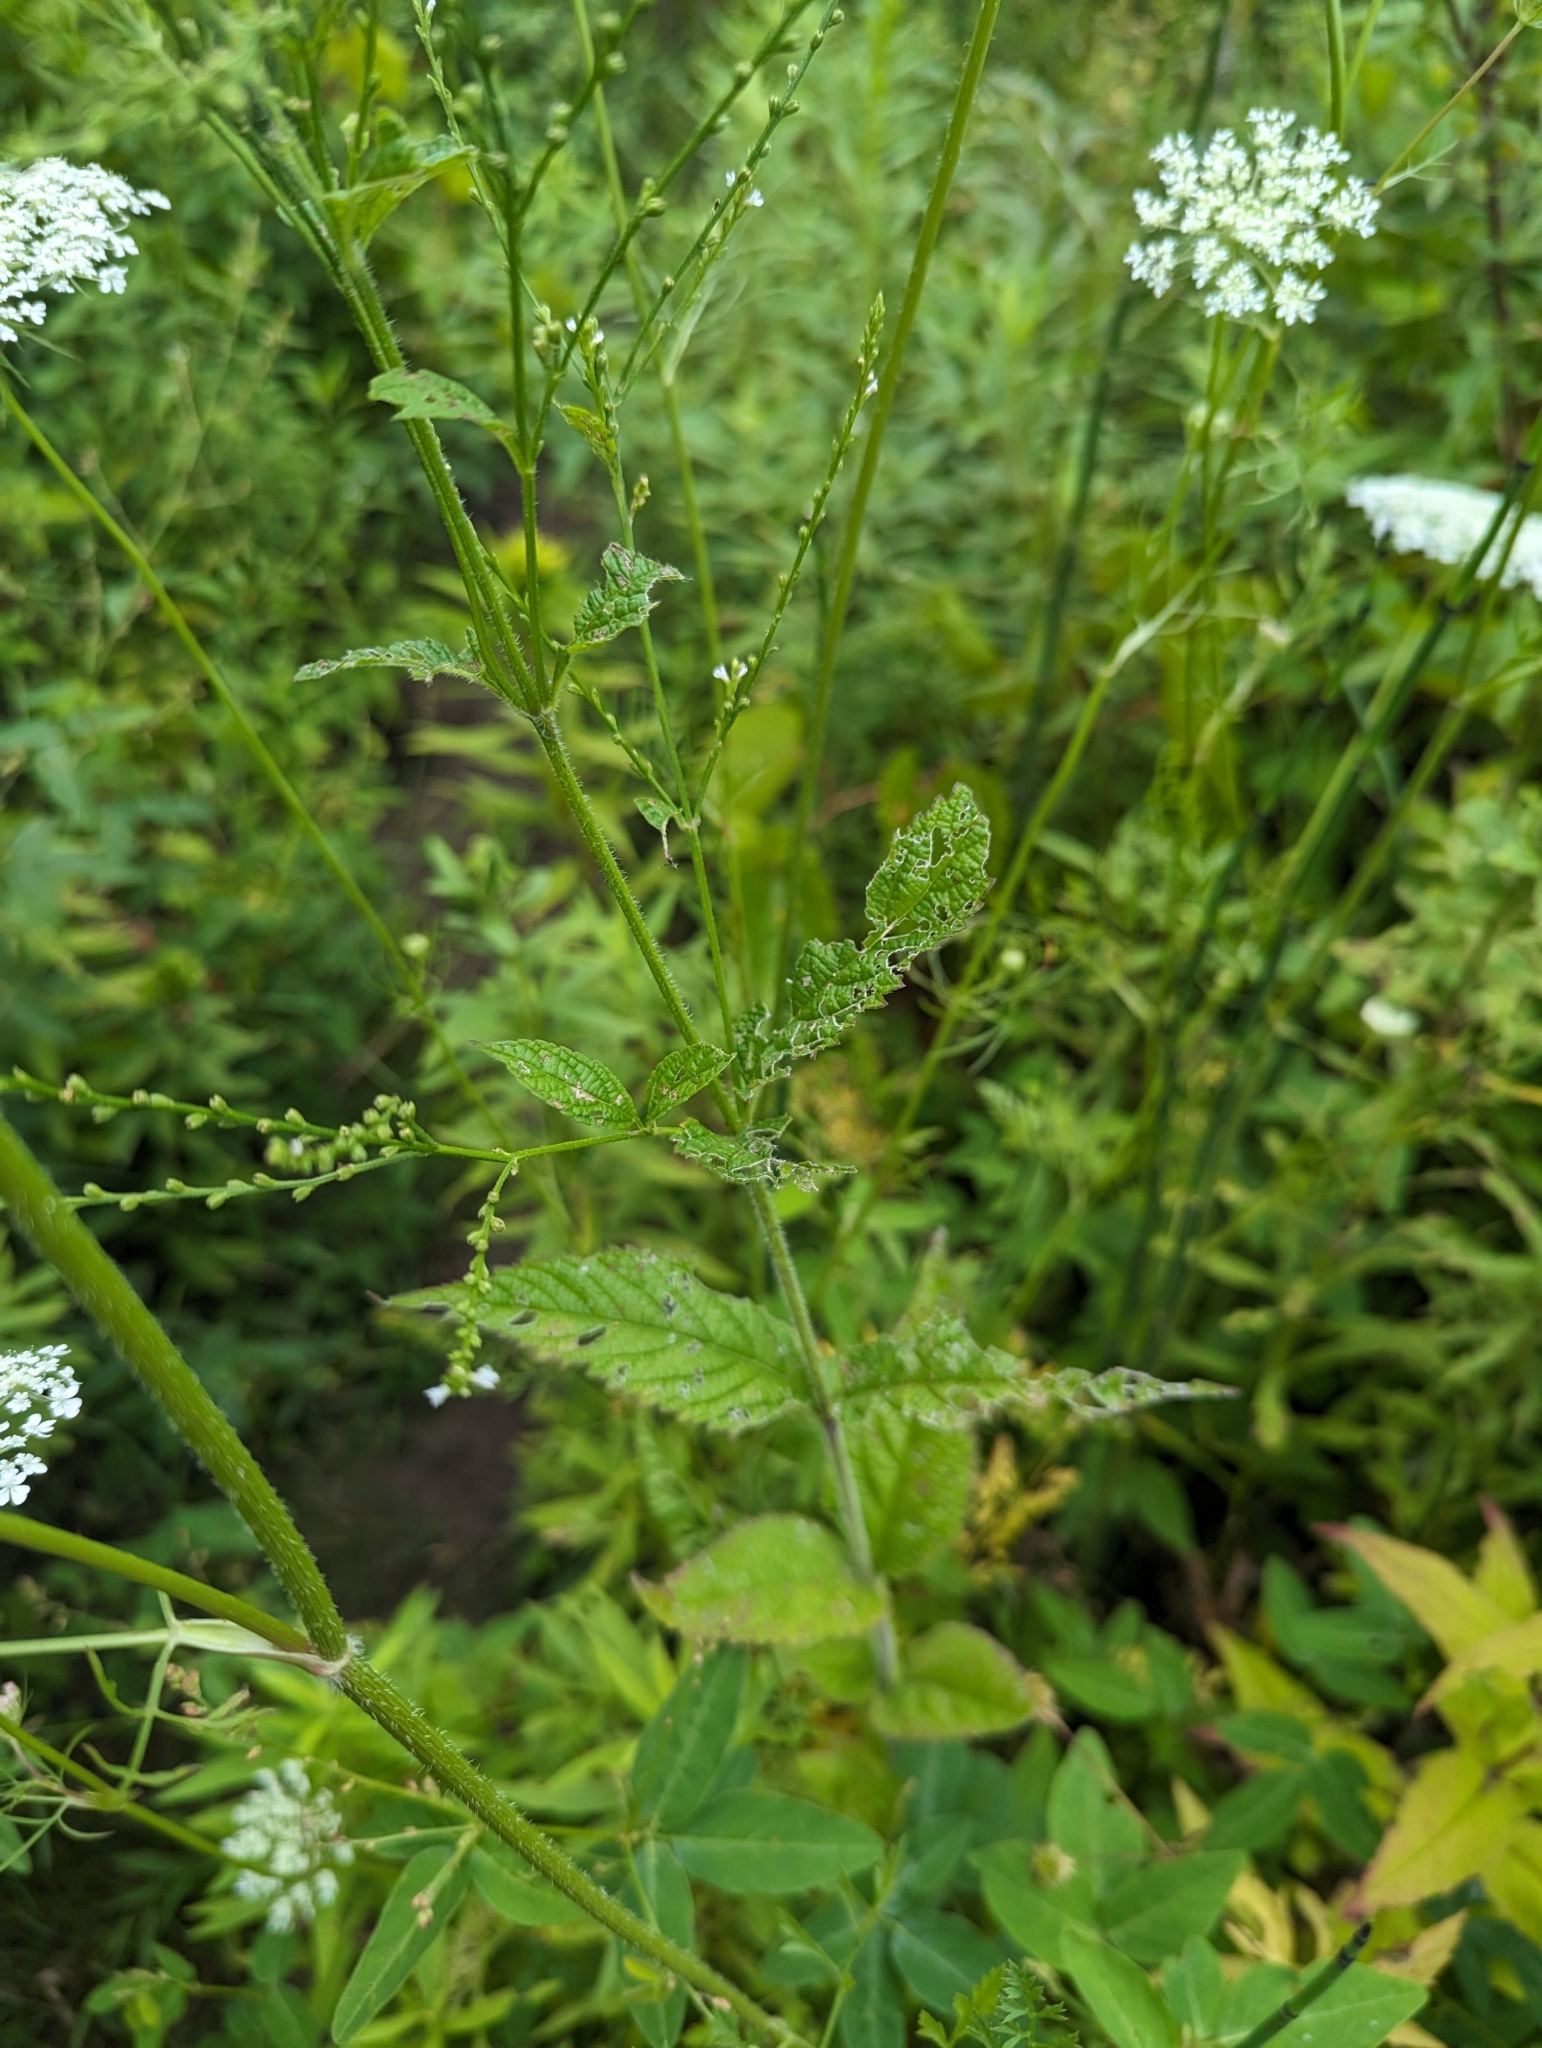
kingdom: Plantae
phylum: Tracheophyta
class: Magnoliopsida
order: Lamiales
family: Verbenaceae
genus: Verbena
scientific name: Verbena urticifolia
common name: Nettle-leaved vervain
